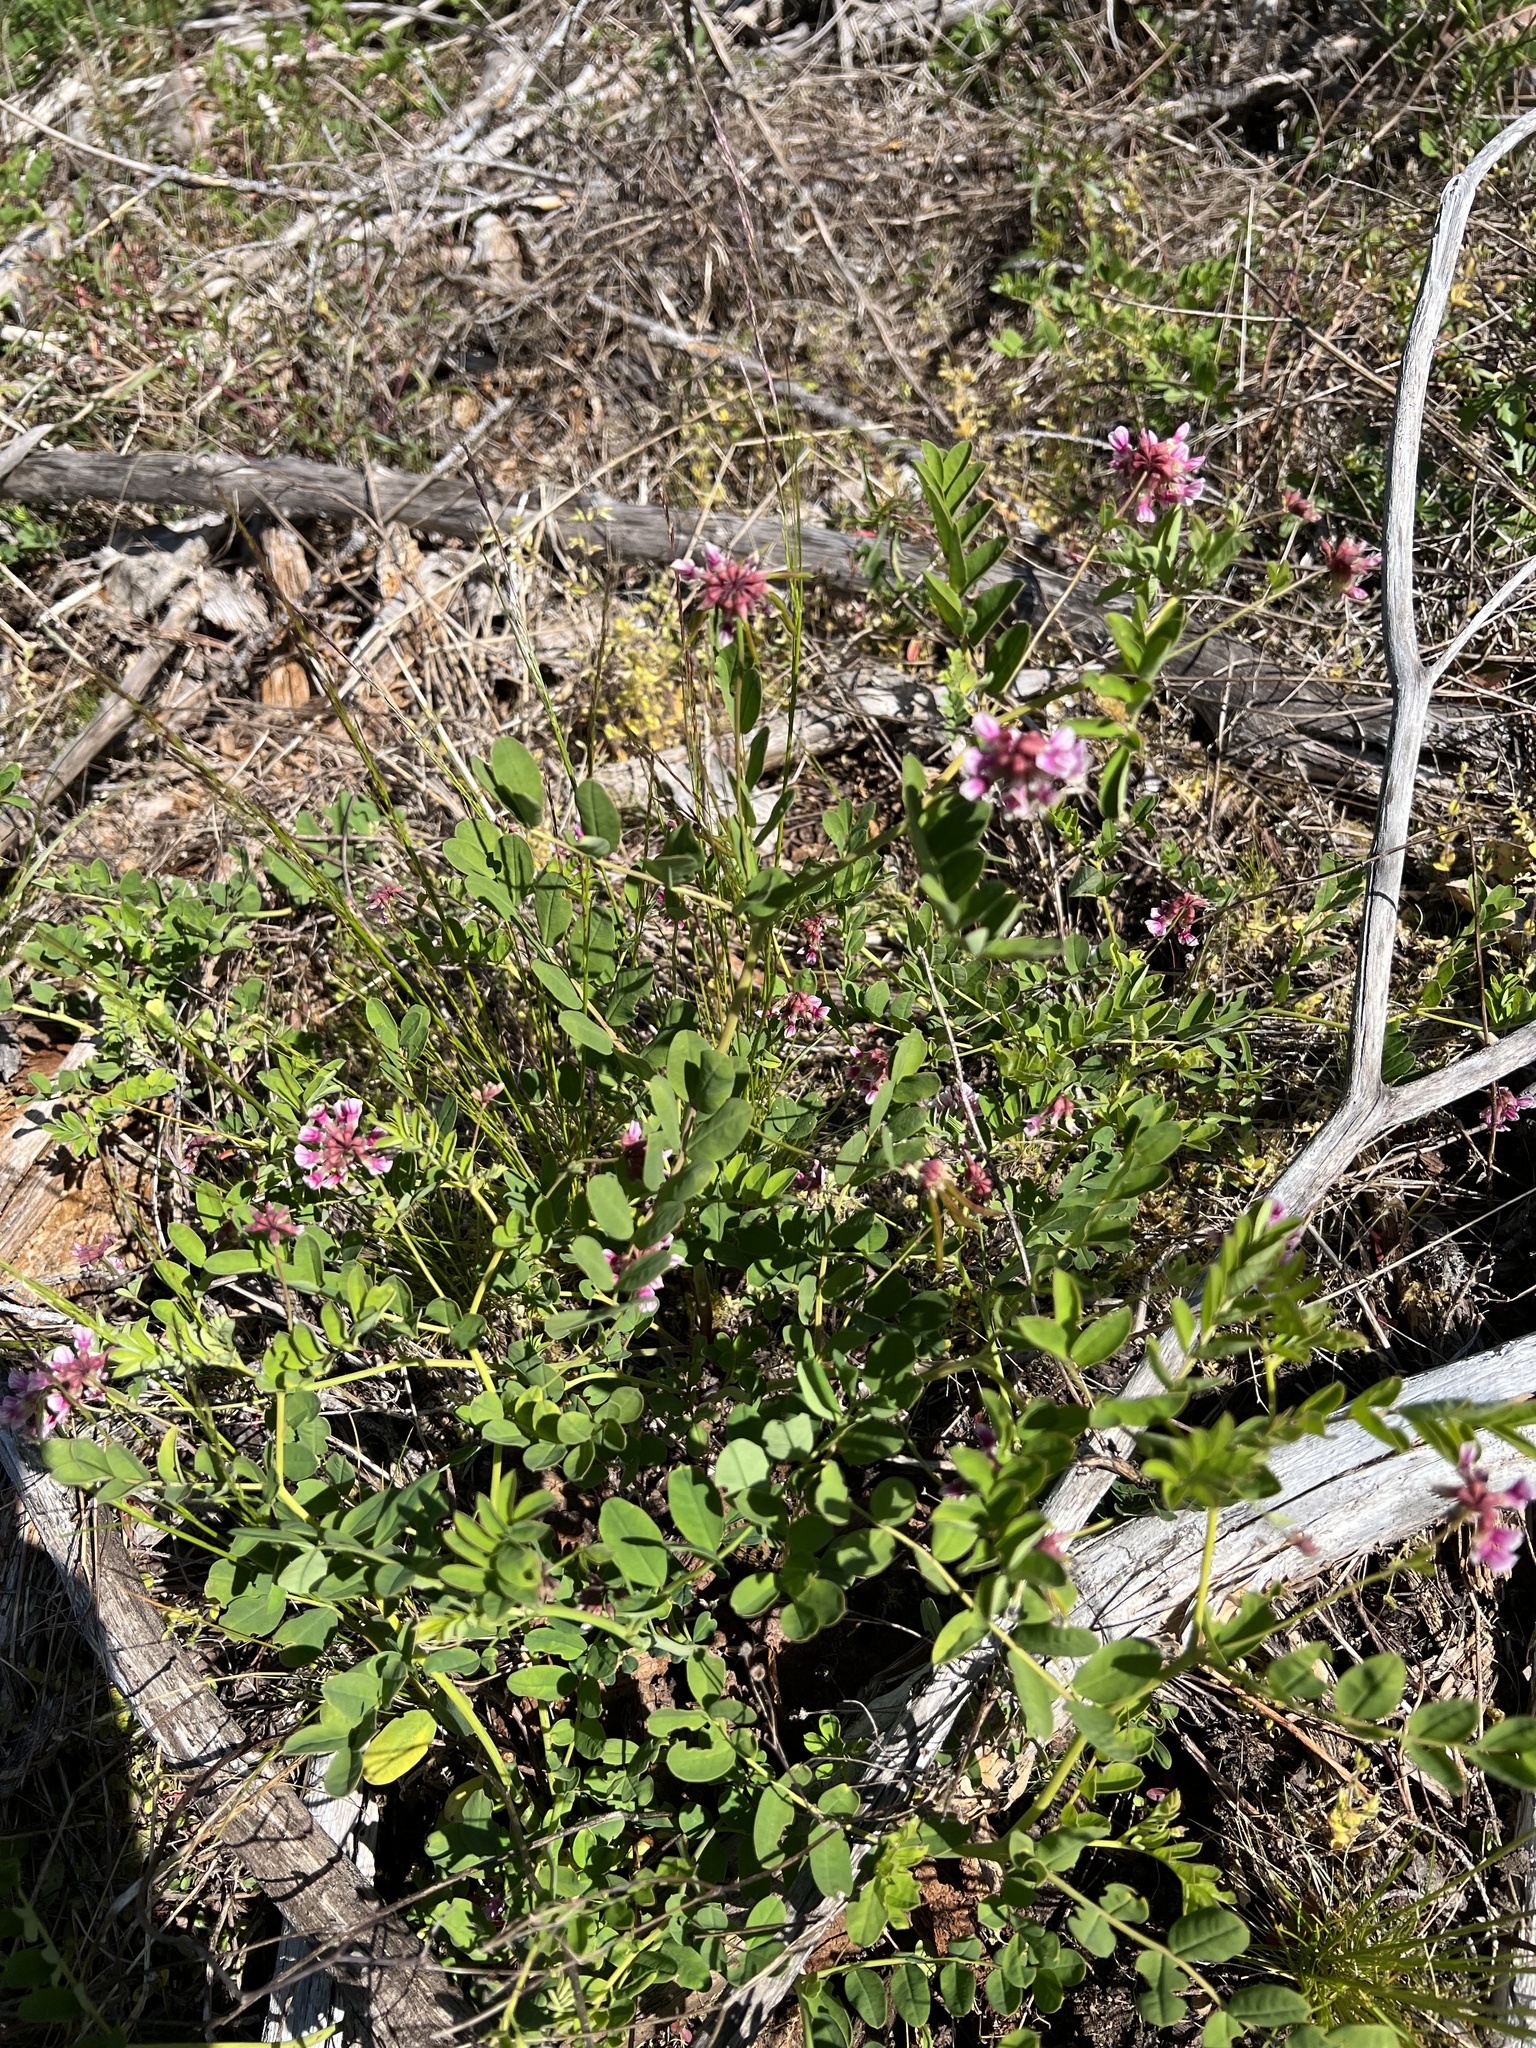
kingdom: Plantae
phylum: Tracheophyta
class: Magnoliopsida
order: Fabales
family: Fabaceae
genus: Hosackia
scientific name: Hosackia rosea
